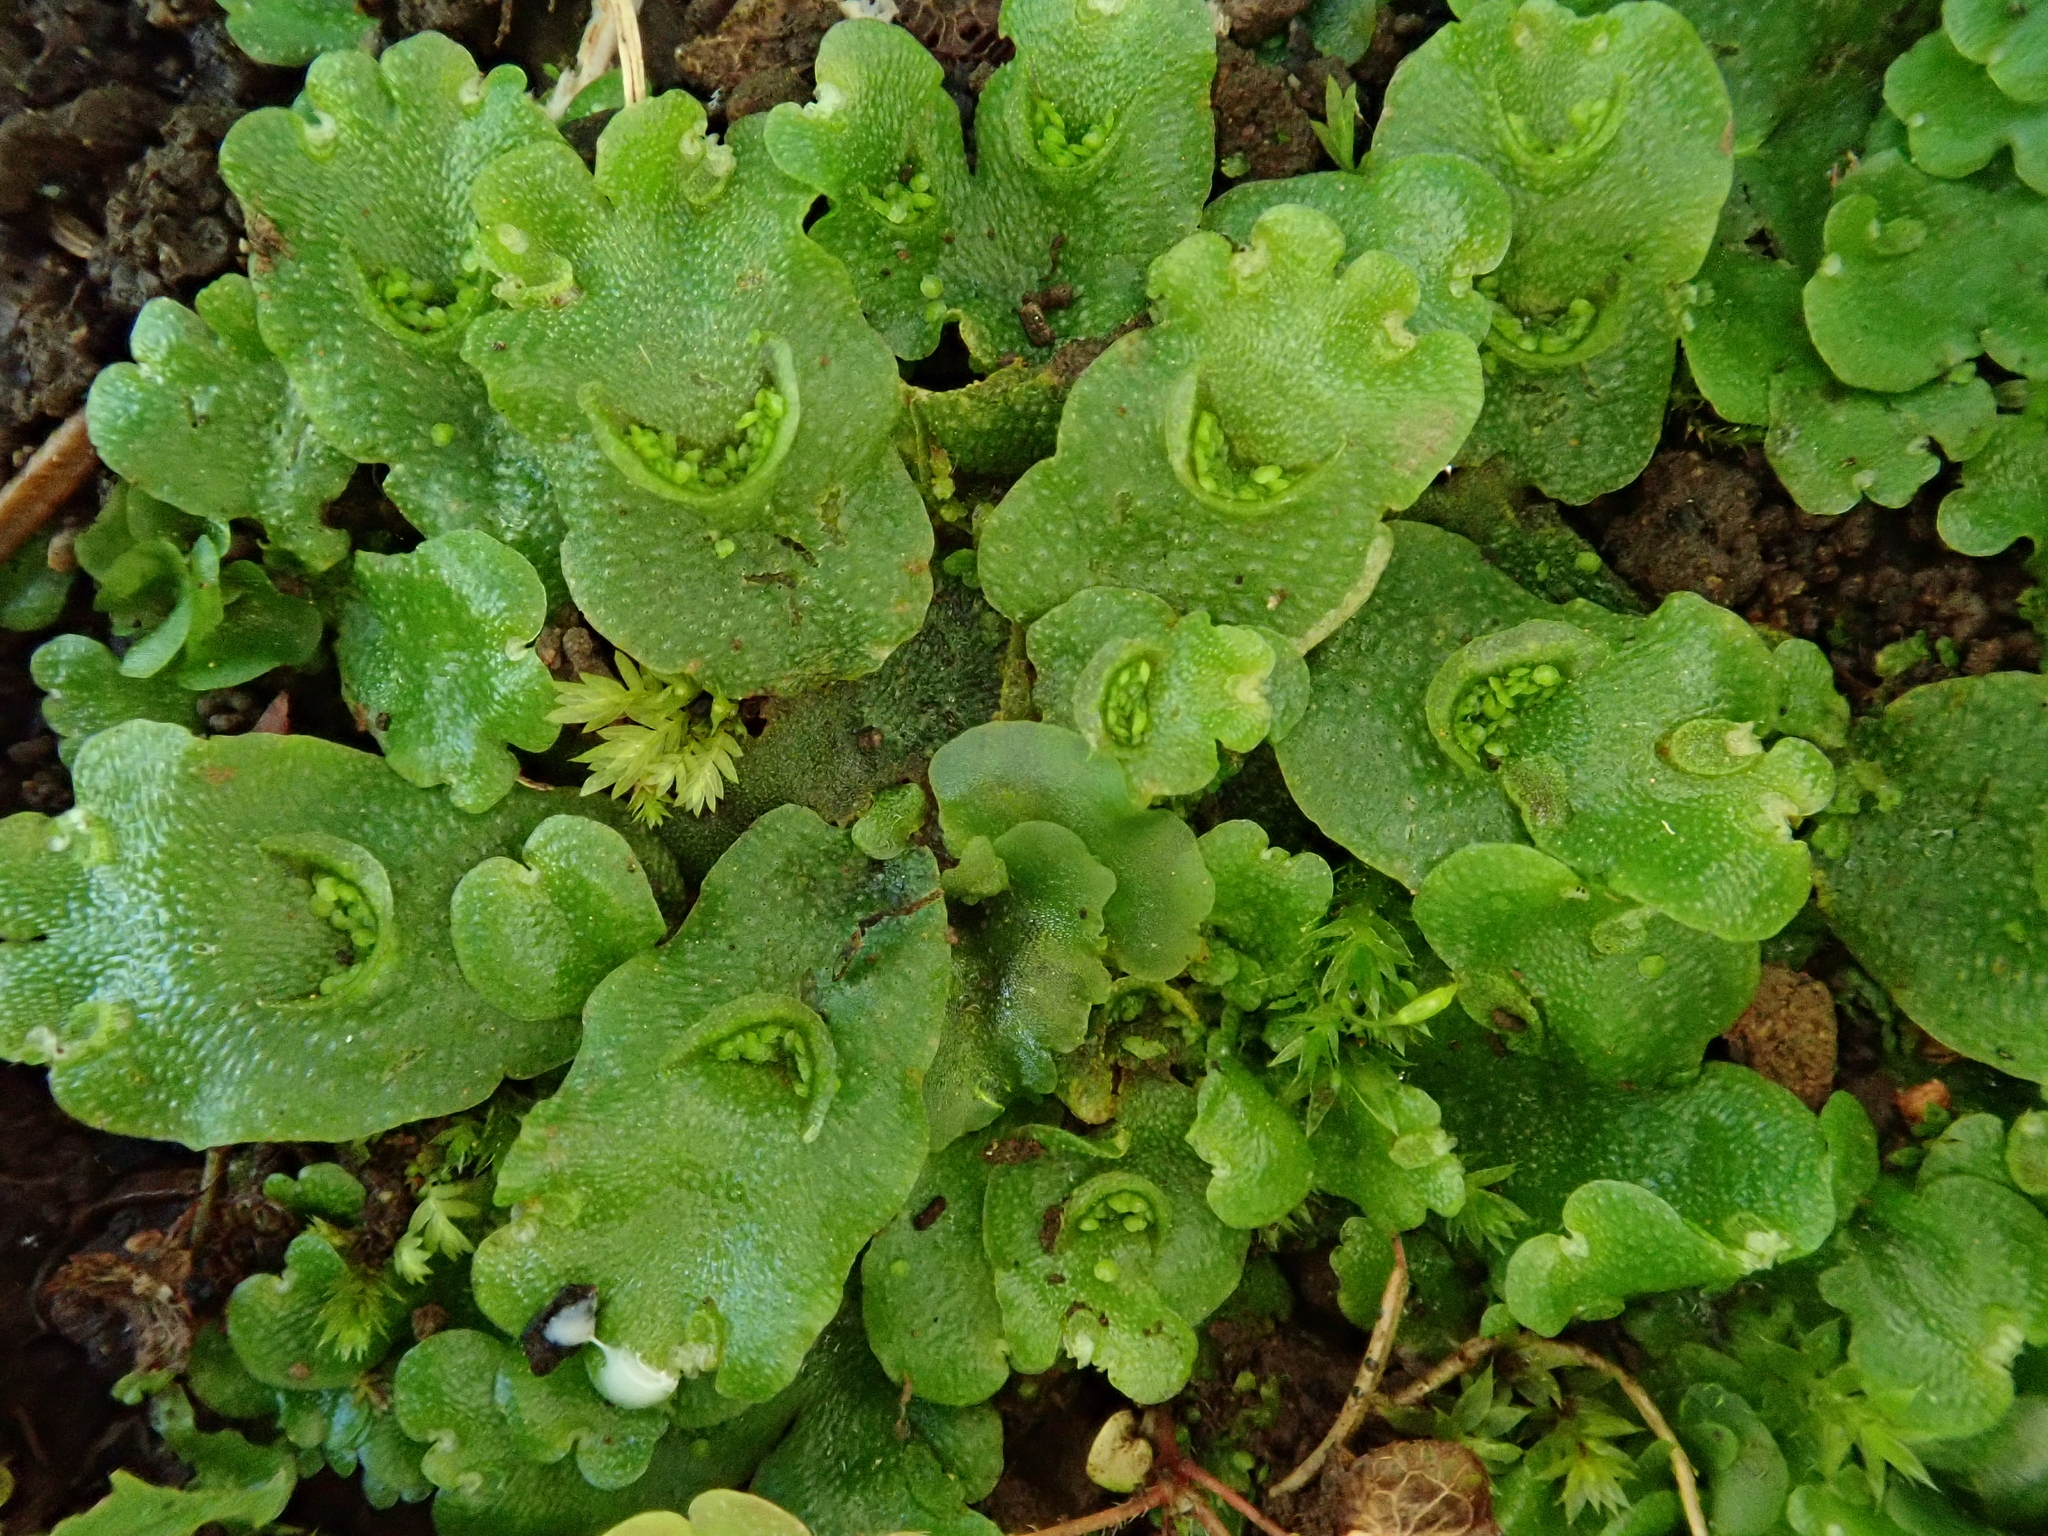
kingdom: Plantae
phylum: Marchantiophyta
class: Marchantiopsida
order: Lunulariales
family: Lunulariaceae
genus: Lunularia
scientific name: Lunularia cruciata
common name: Crescent-cup liverwort
